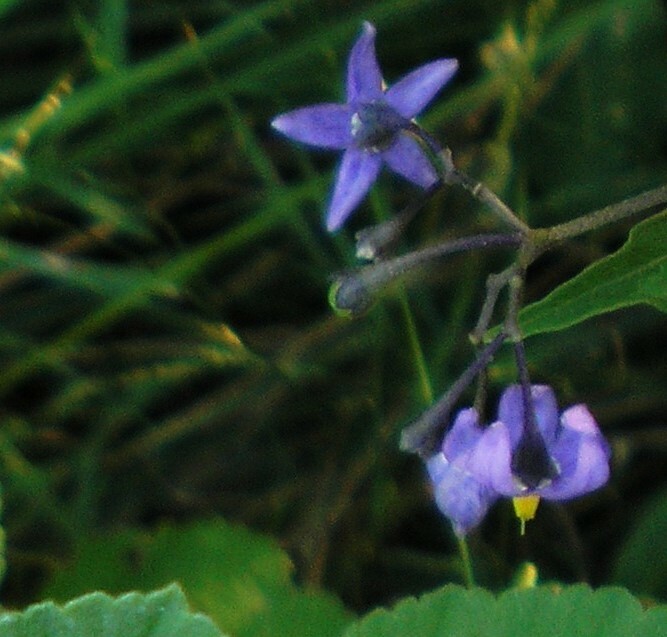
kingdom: Plantae
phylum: Tracheophyta
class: Magnoliopsida
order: Solanales
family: Solanaceae
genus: Solanum
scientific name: Solanum dulcamara
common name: Climbing nightshade
